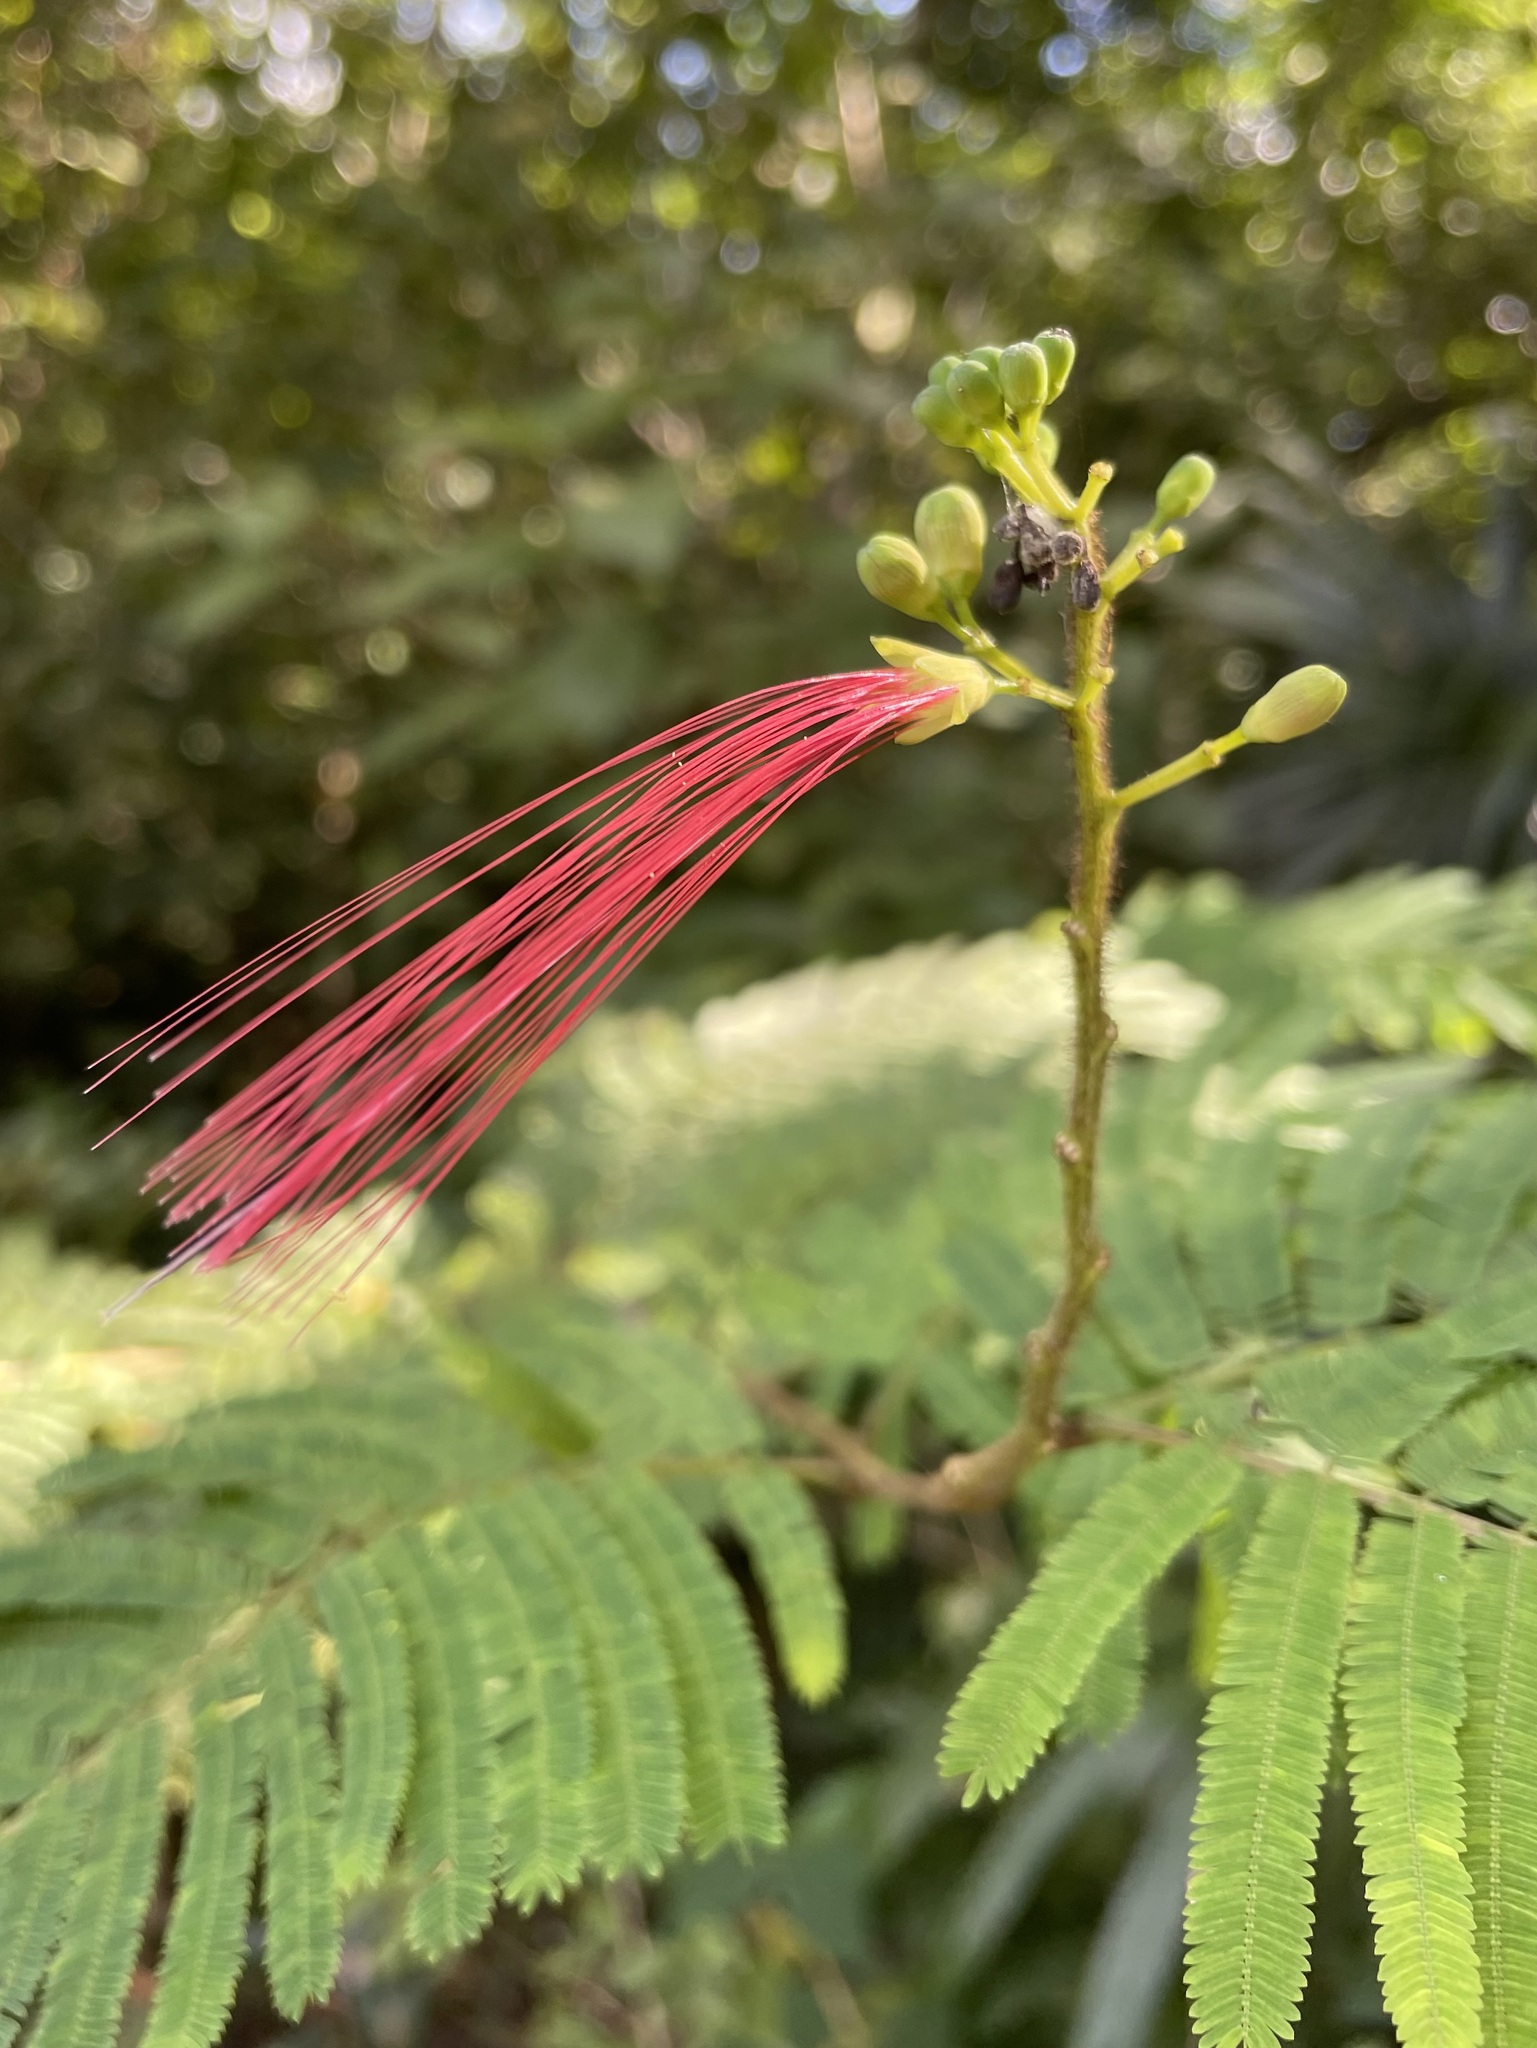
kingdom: Plantae
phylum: Tracheophyta
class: Magnoliopsida
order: Fabales
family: Fabaceae
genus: Calliandra
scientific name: Calliandra houstoniana
